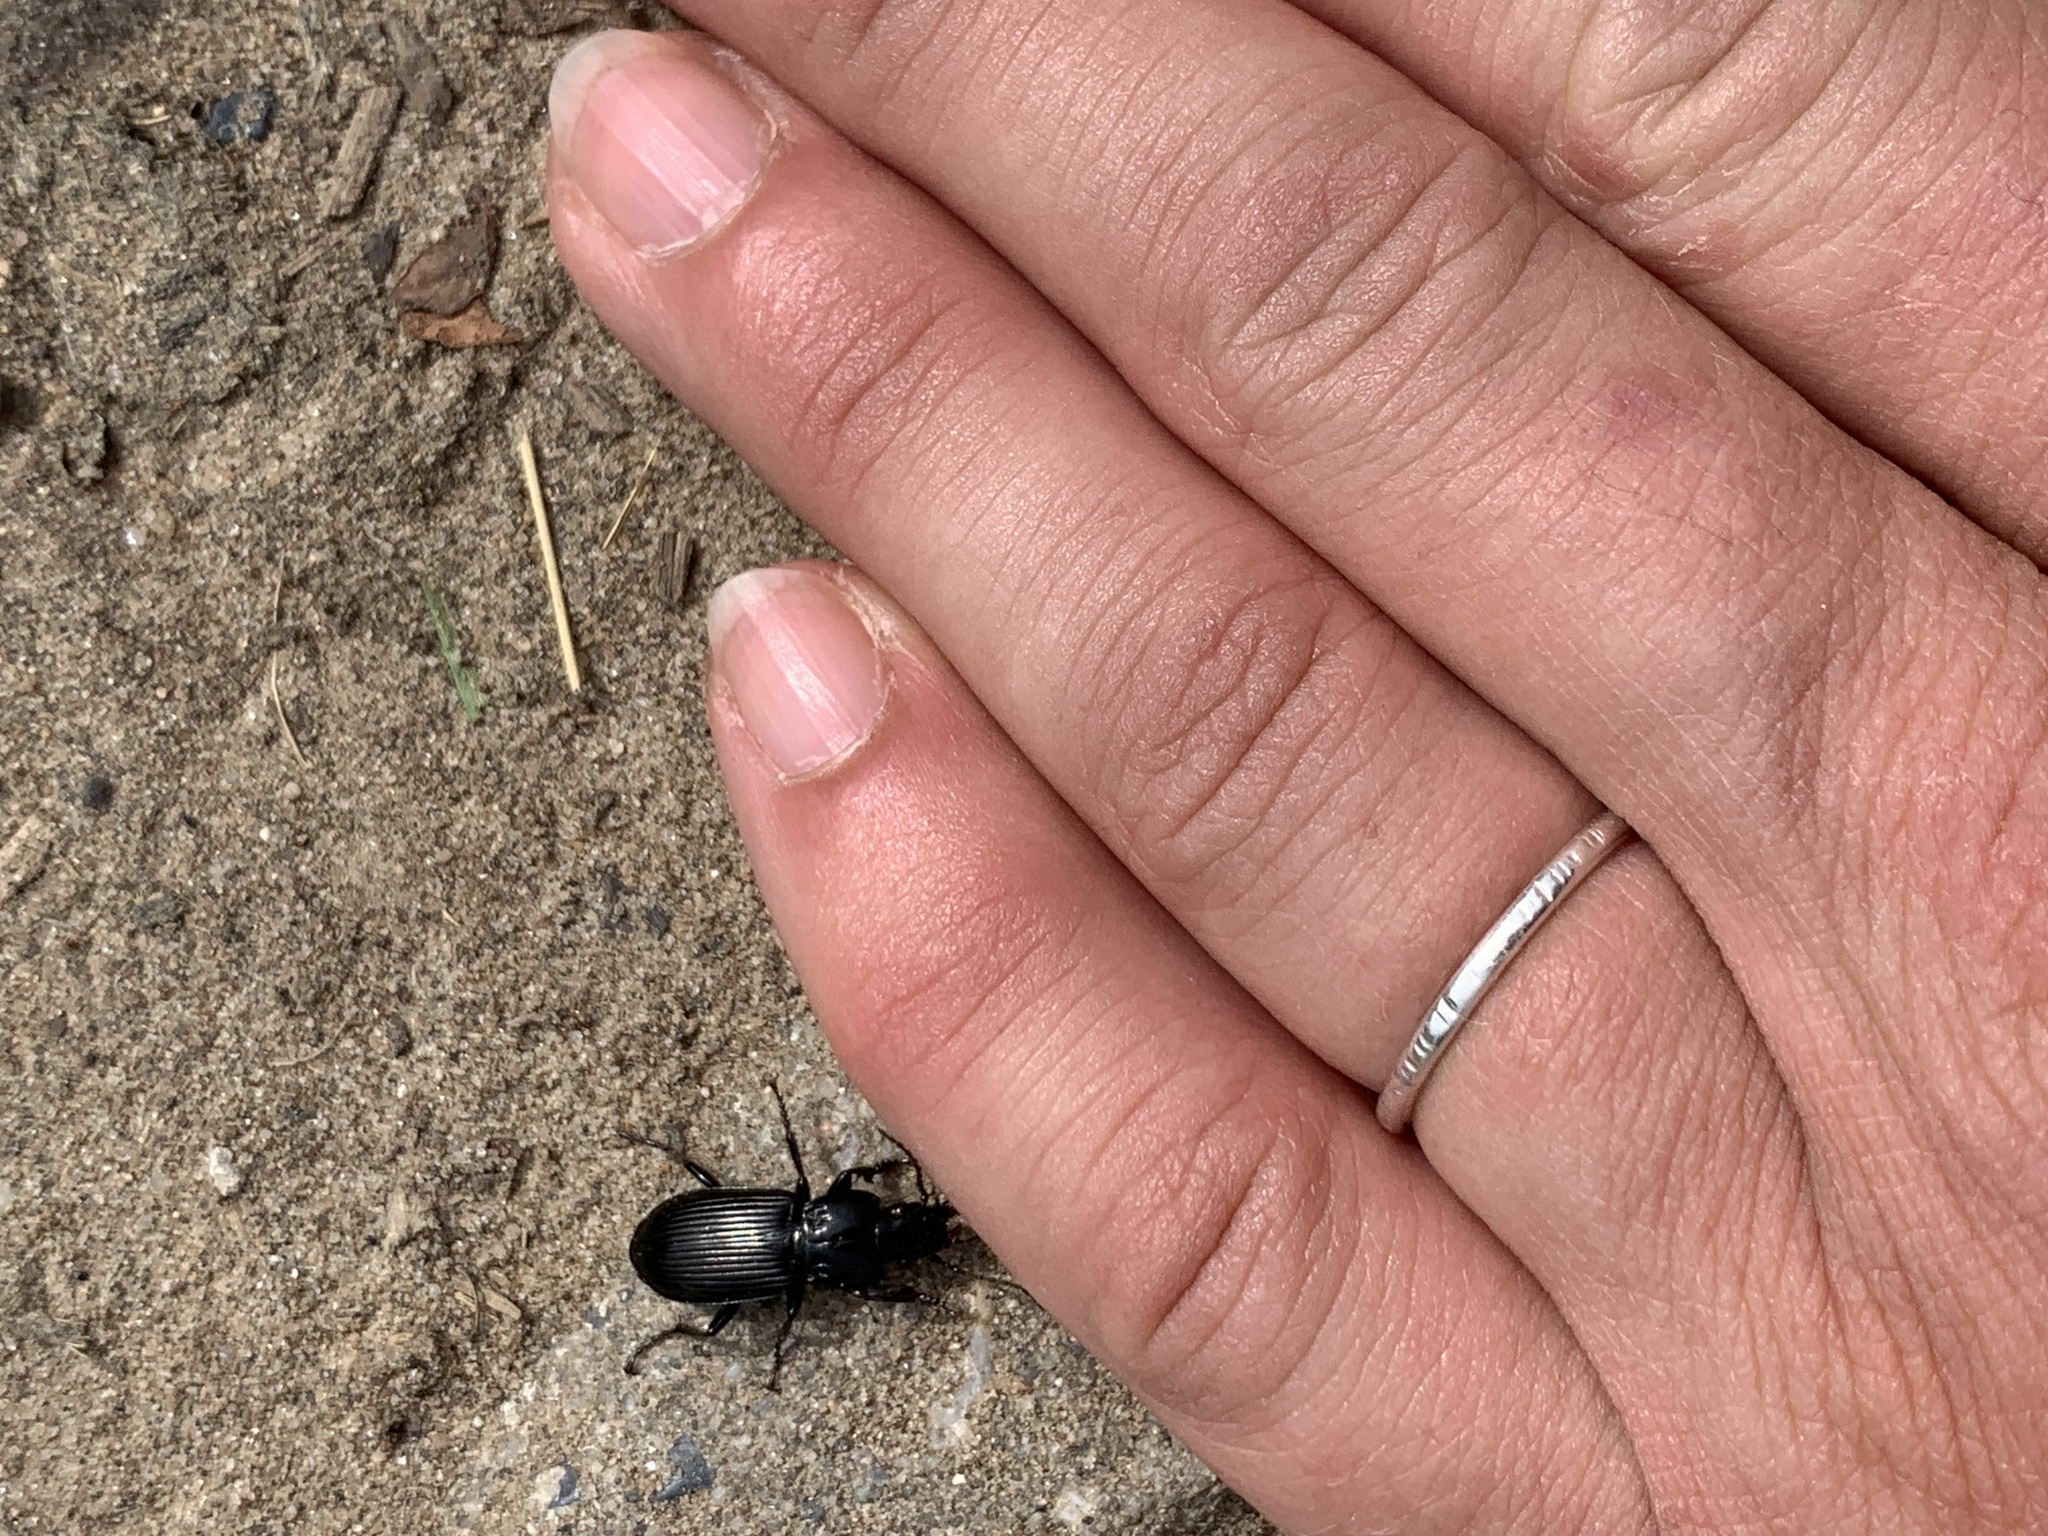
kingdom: Animalia
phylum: Arthropoda
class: Insecta
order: Coleoptera
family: Carabidae
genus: Pterostichus
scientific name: Pterostichus melanarius
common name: European dark harp ground beetle
